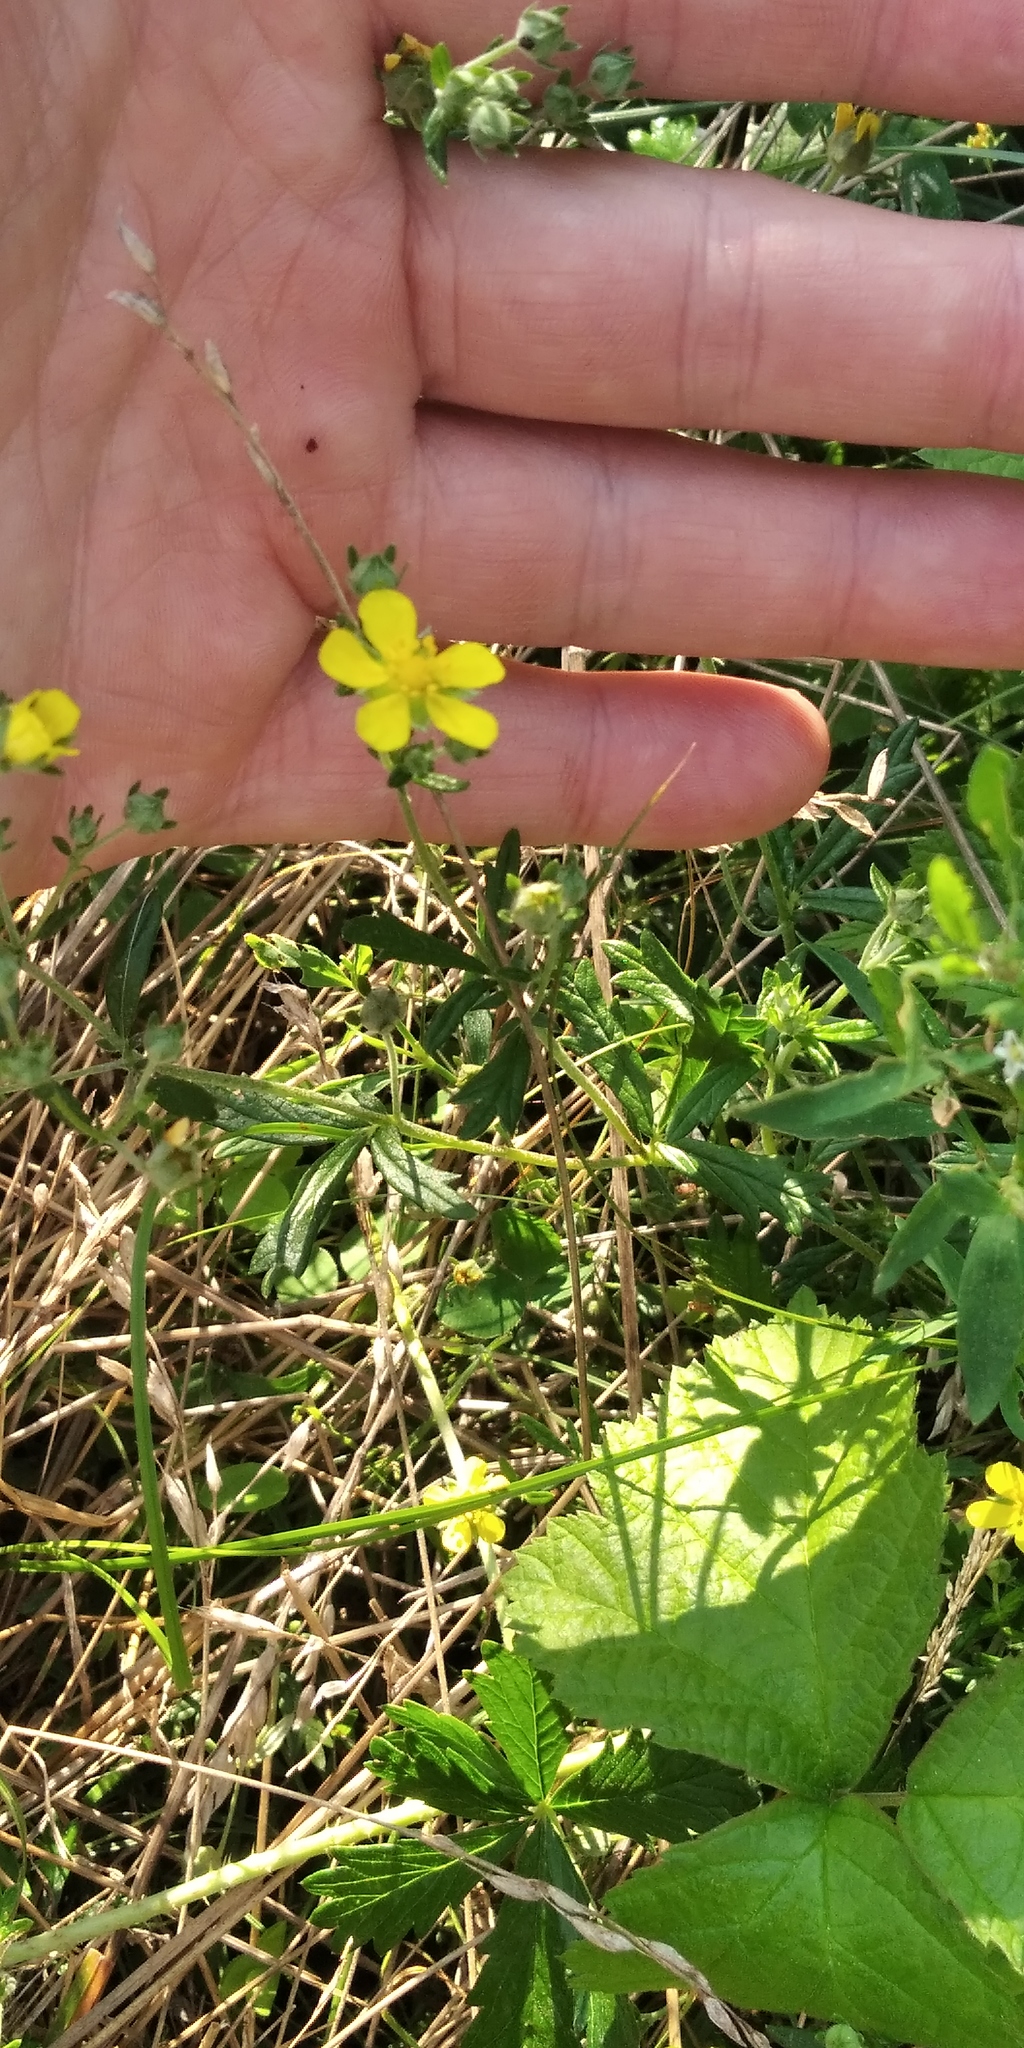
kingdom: Plantae
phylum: Tracheophyta
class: Magnoliopsida
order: Rosales
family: Rosaceae
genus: Potentilla
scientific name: Potentilla argentea
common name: Hoary cinquefoil
